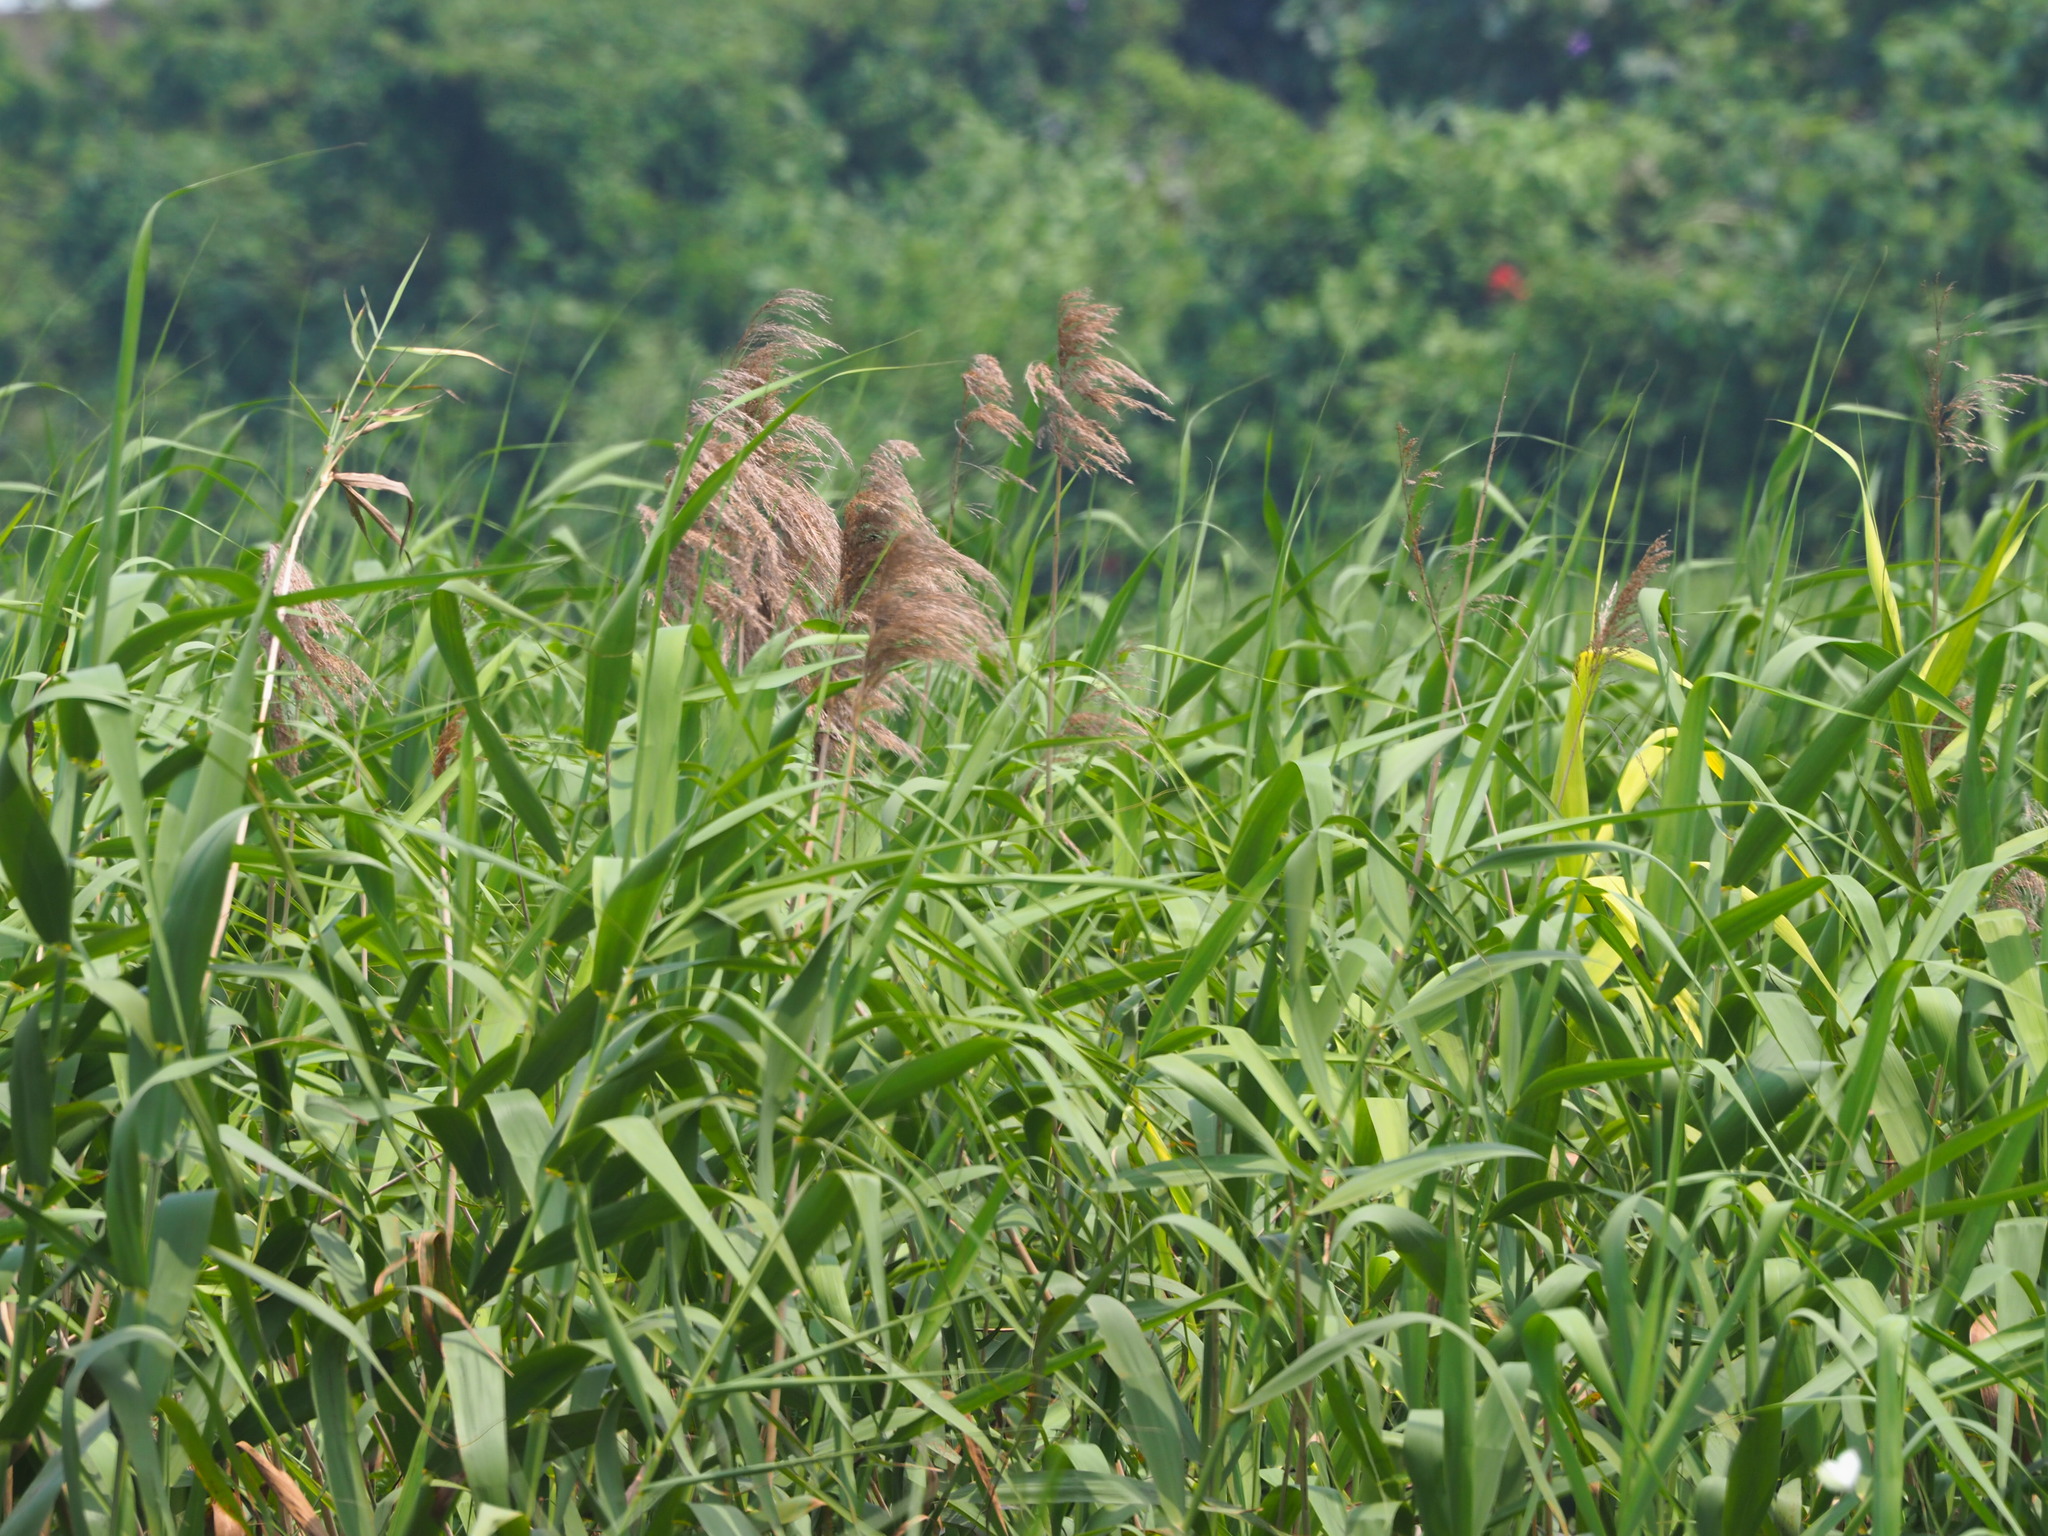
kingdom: Plantae
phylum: Tracheophyta
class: Liliopsida
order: Poales
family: Poaceae
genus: Phragmites
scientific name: Phragmites australis
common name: Common reed
